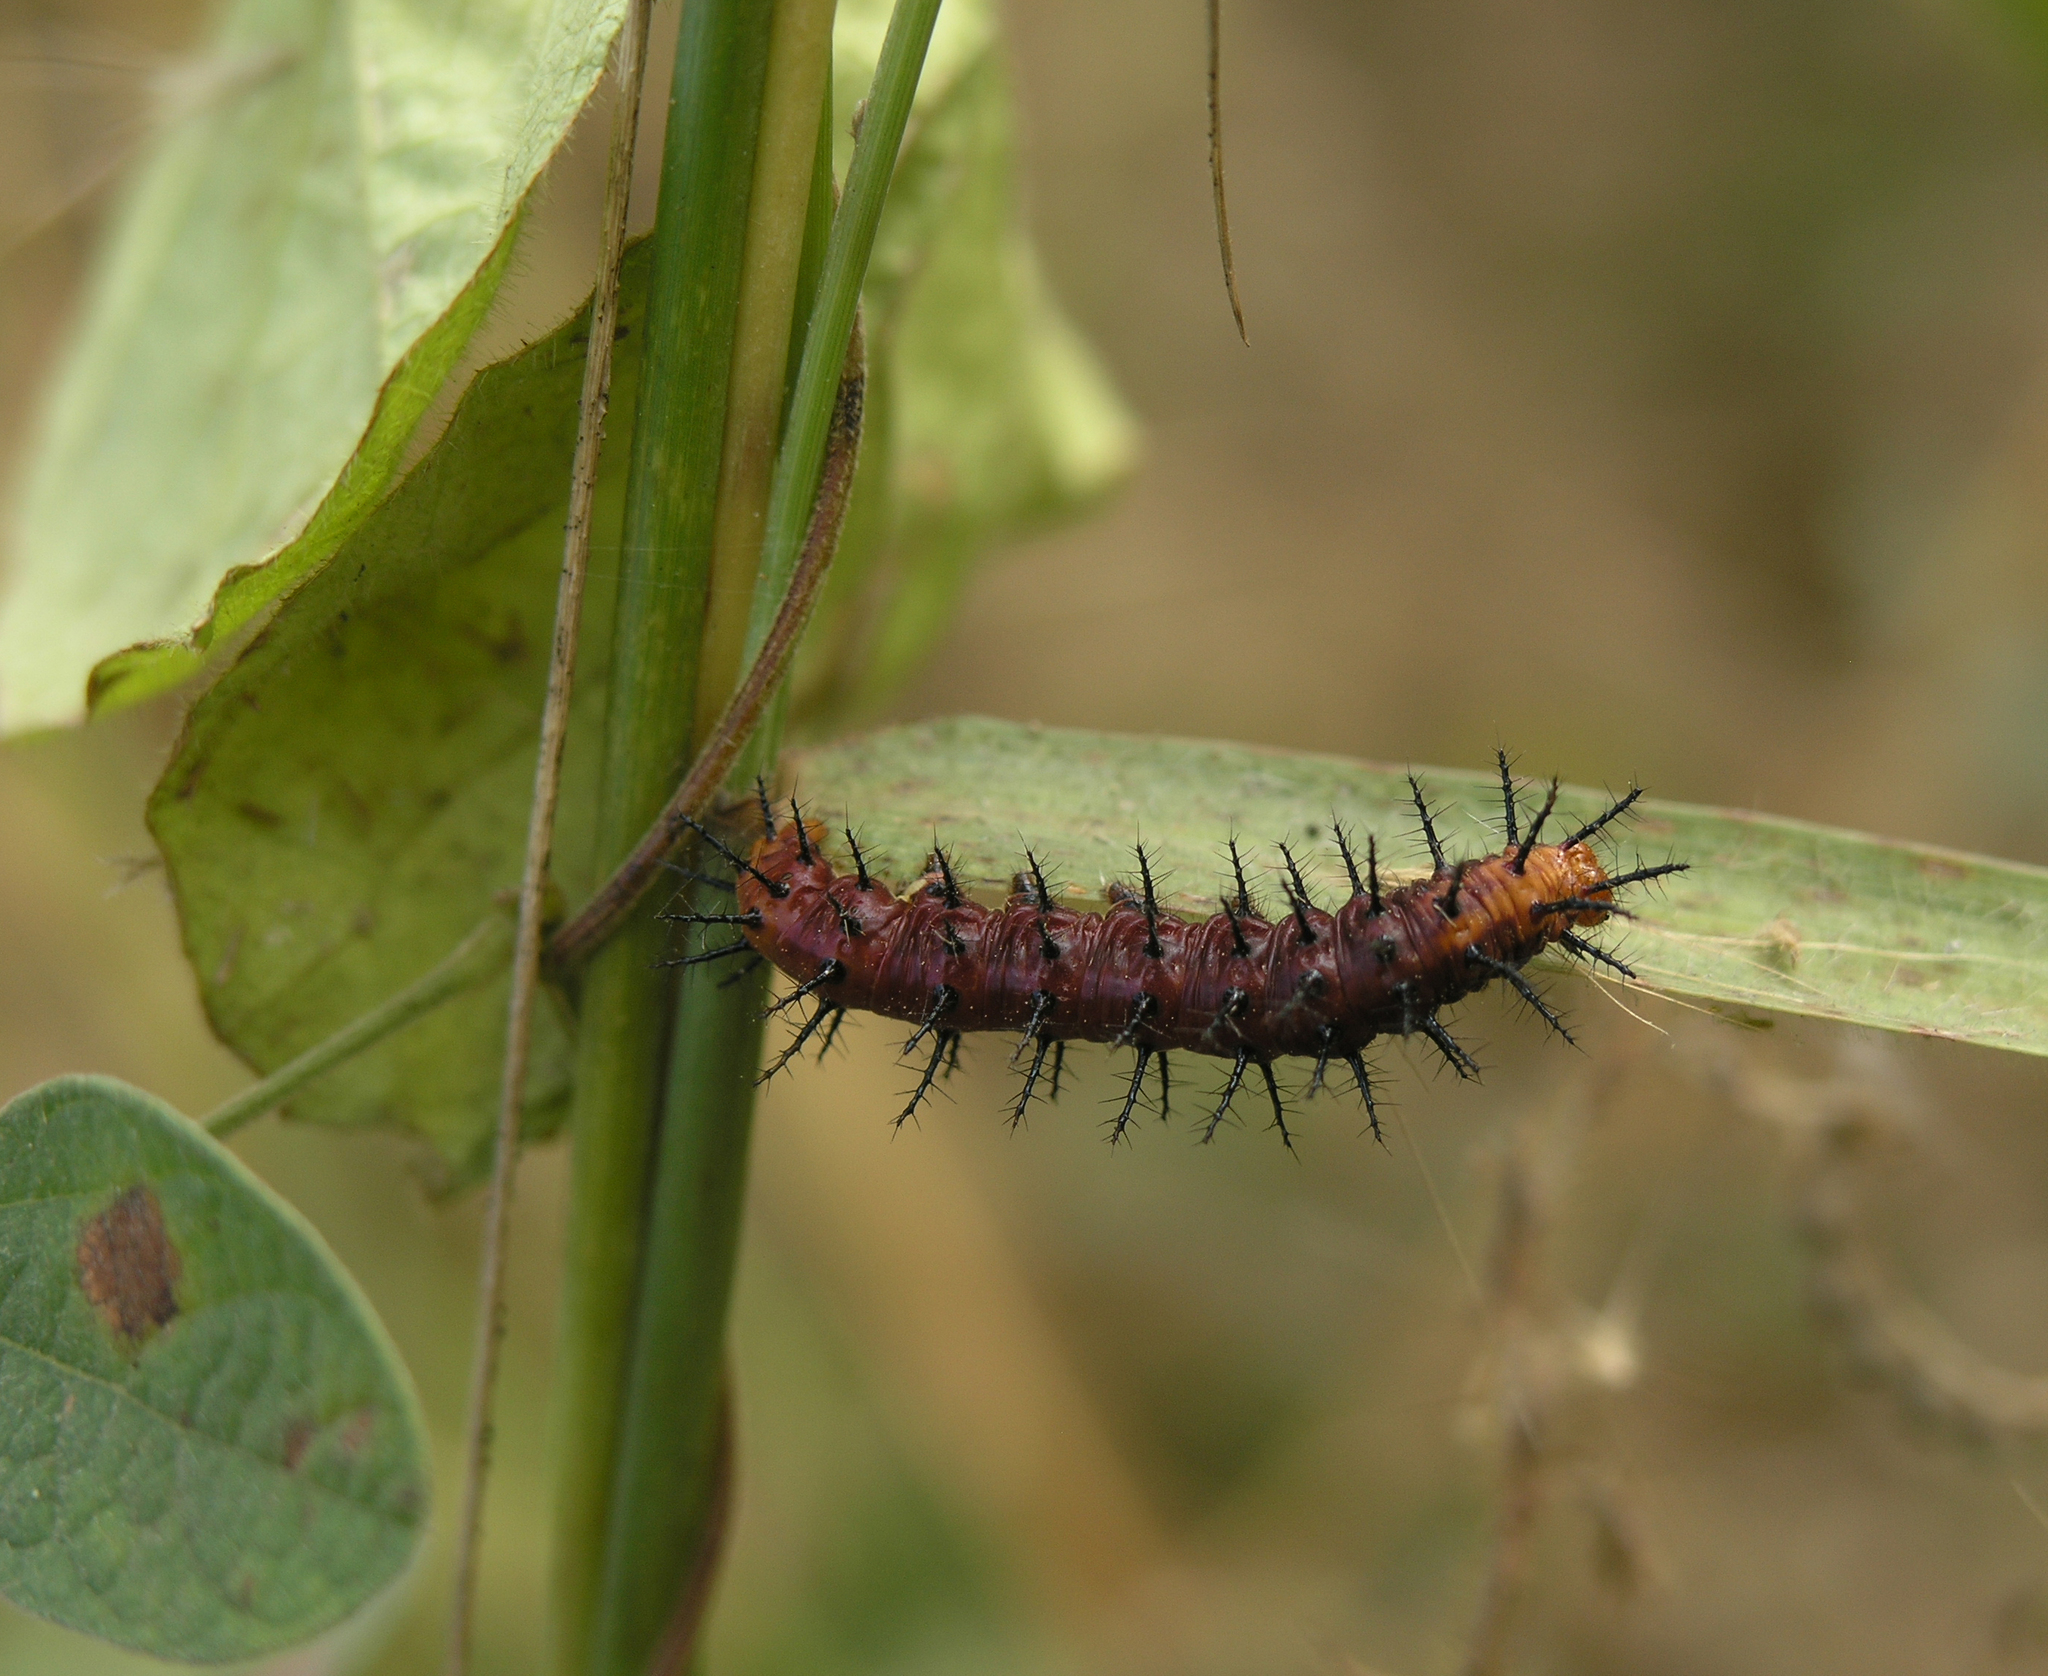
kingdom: Animalia
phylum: Arthropoda
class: Insecta
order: Lepidoptera
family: Nymphalidae
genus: Acraea
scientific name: Acraea terpsicore
